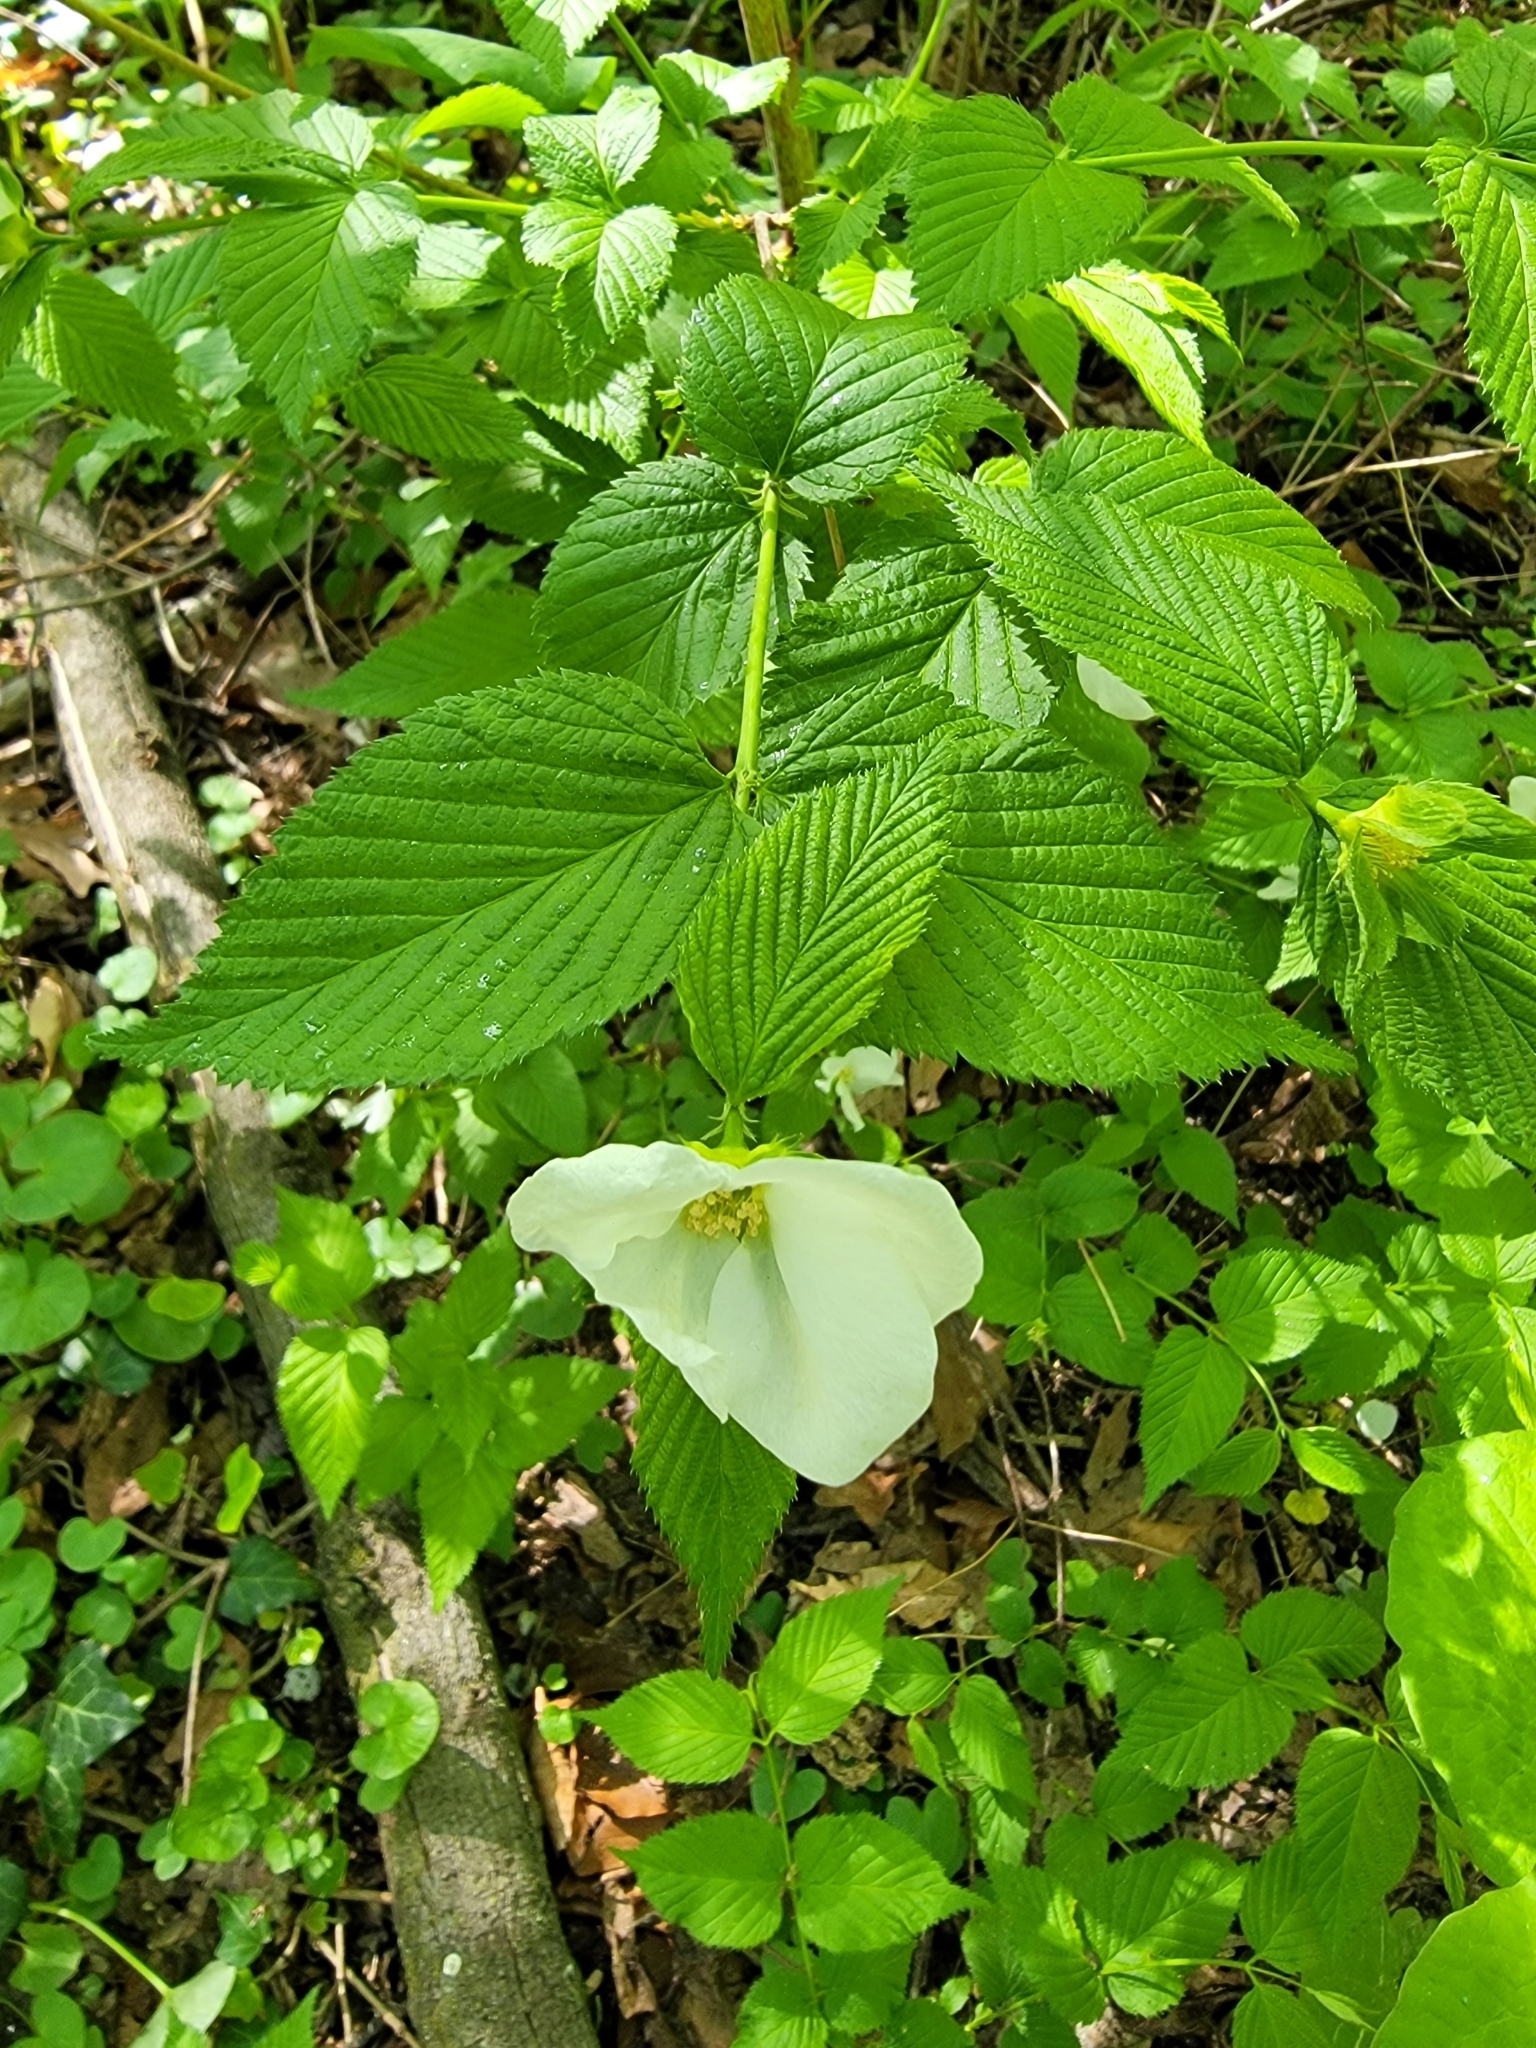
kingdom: Plantae
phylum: Tracheophyta
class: Magnoliopsida
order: Rosales
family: Rosaceae
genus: Rhodotypos
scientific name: Rhodotypos scandens
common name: Jetbead
